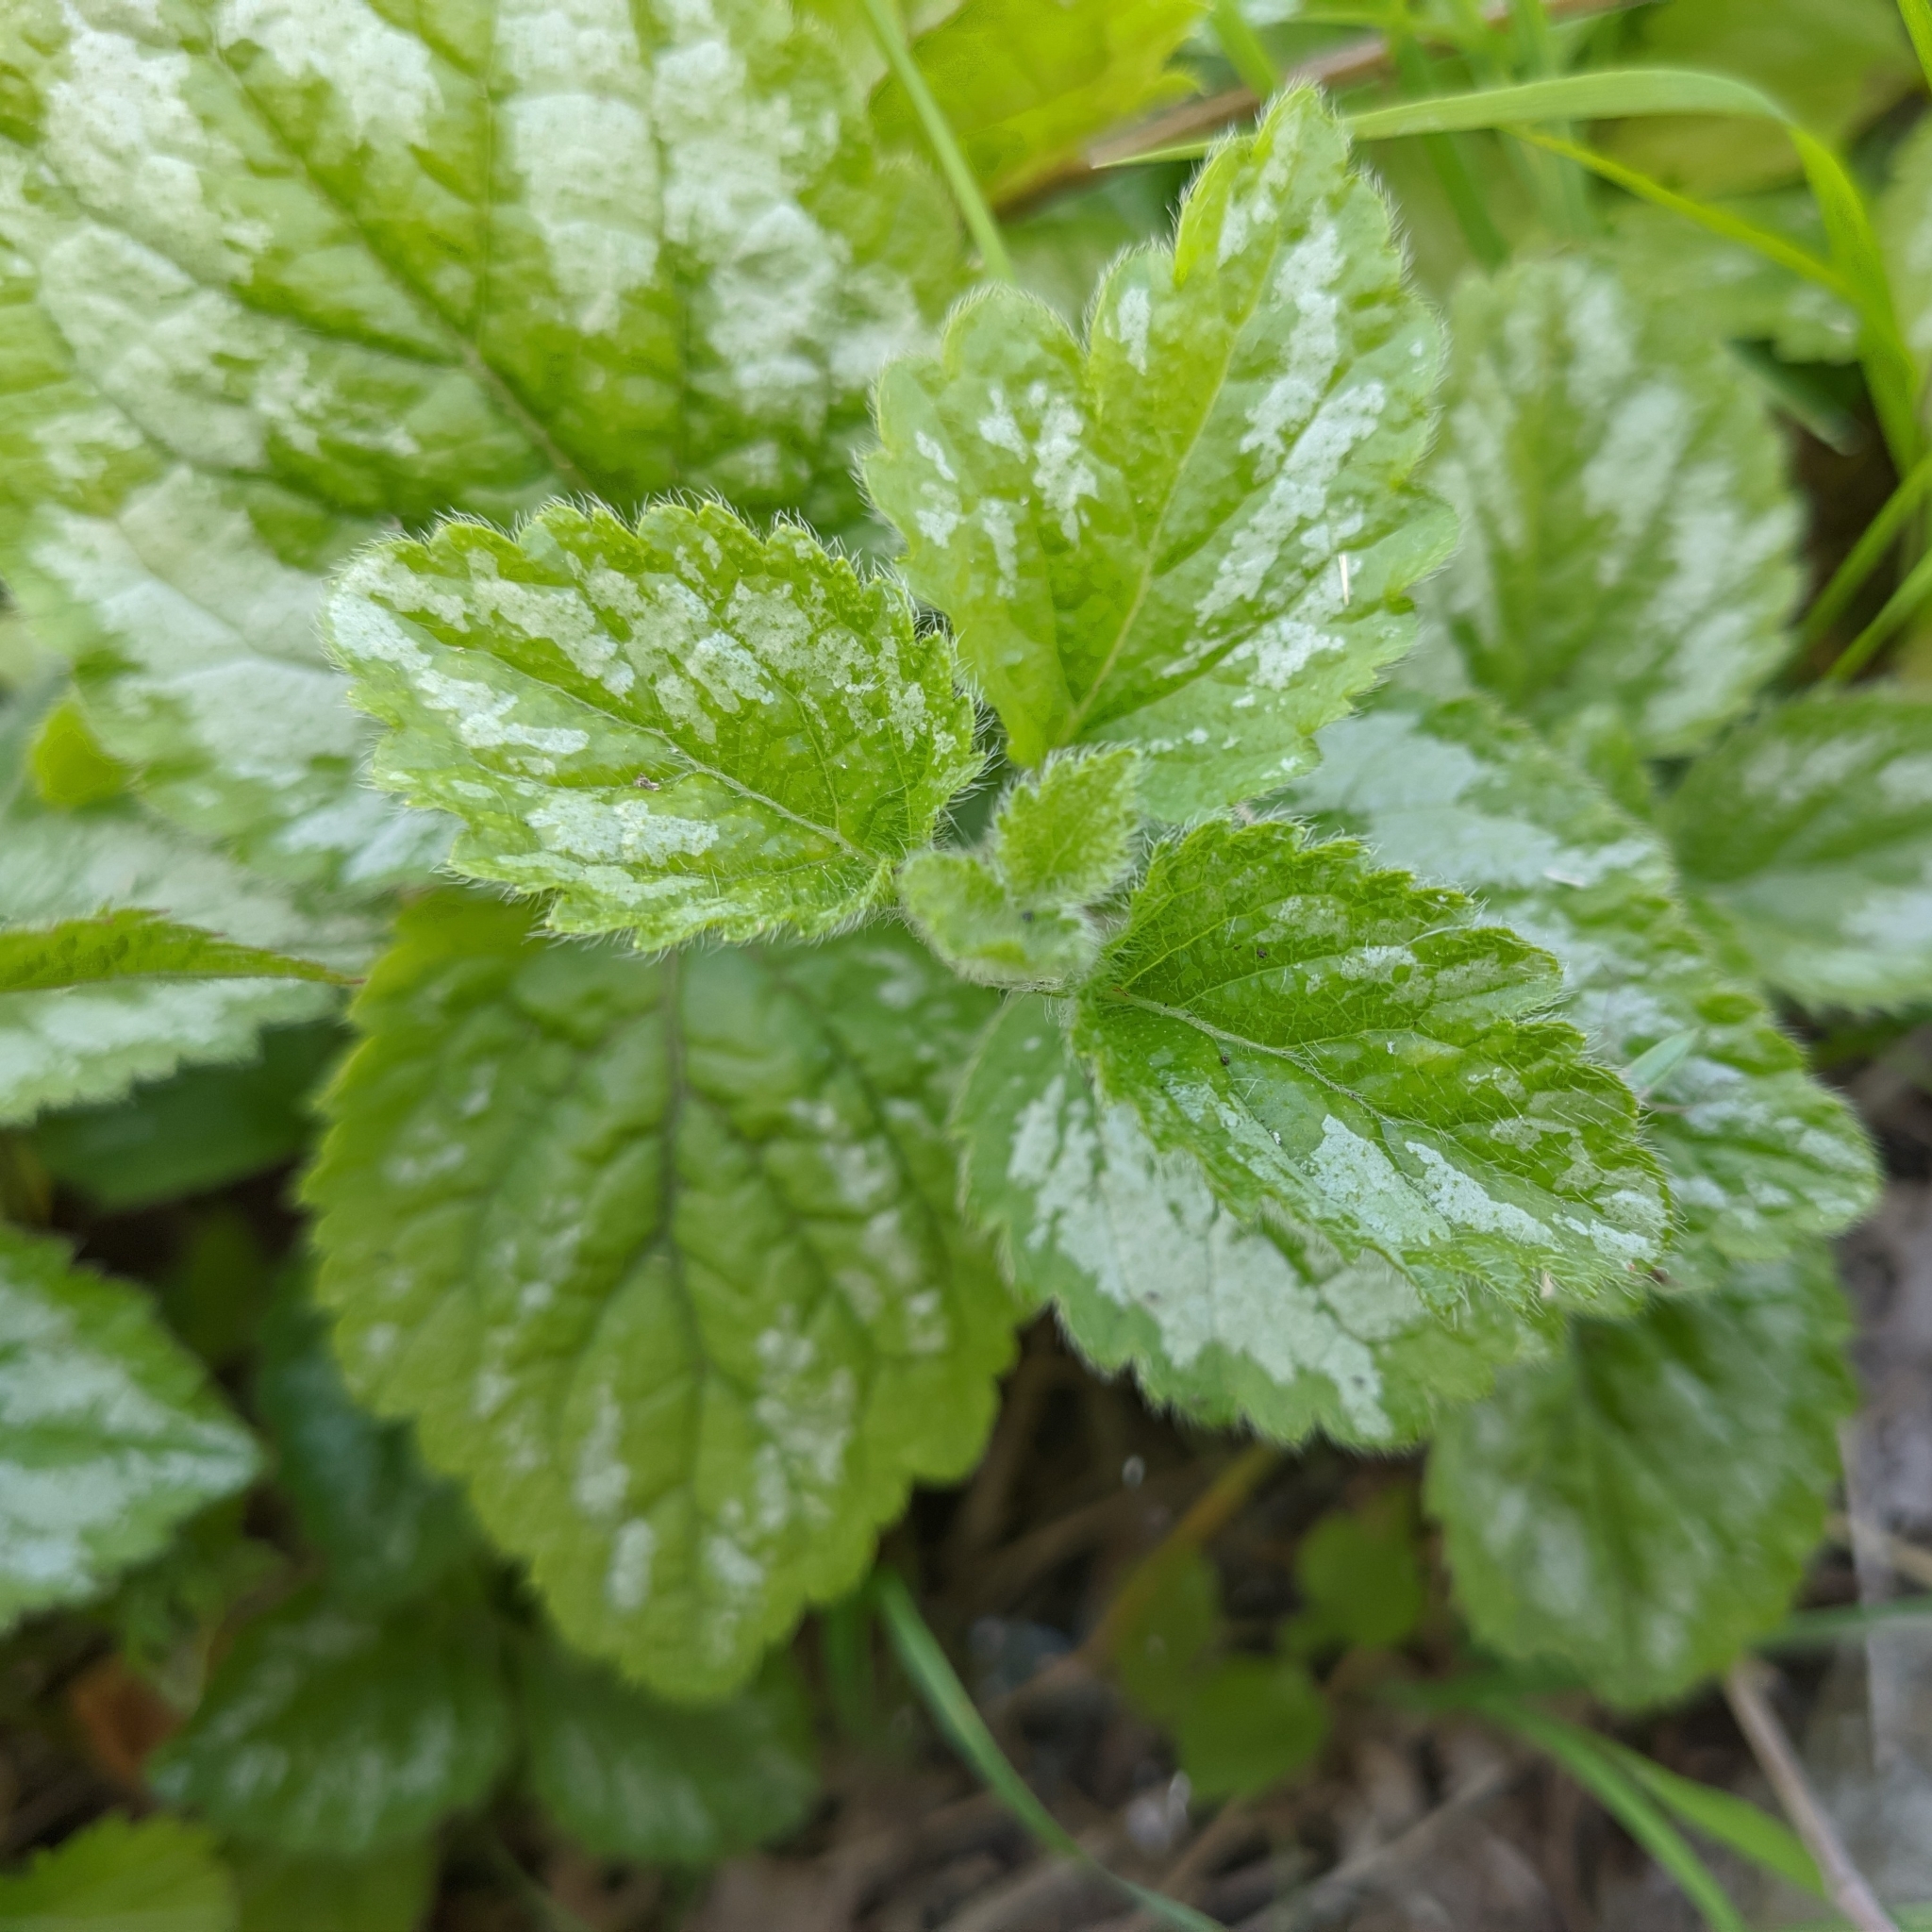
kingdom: Plantae
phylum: Tracheophyta
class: Magnoliopsida
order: Lamiales
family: Lamiaceae
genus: Lamium
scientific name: Lamium galeobdolon
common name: Yellow archangel
